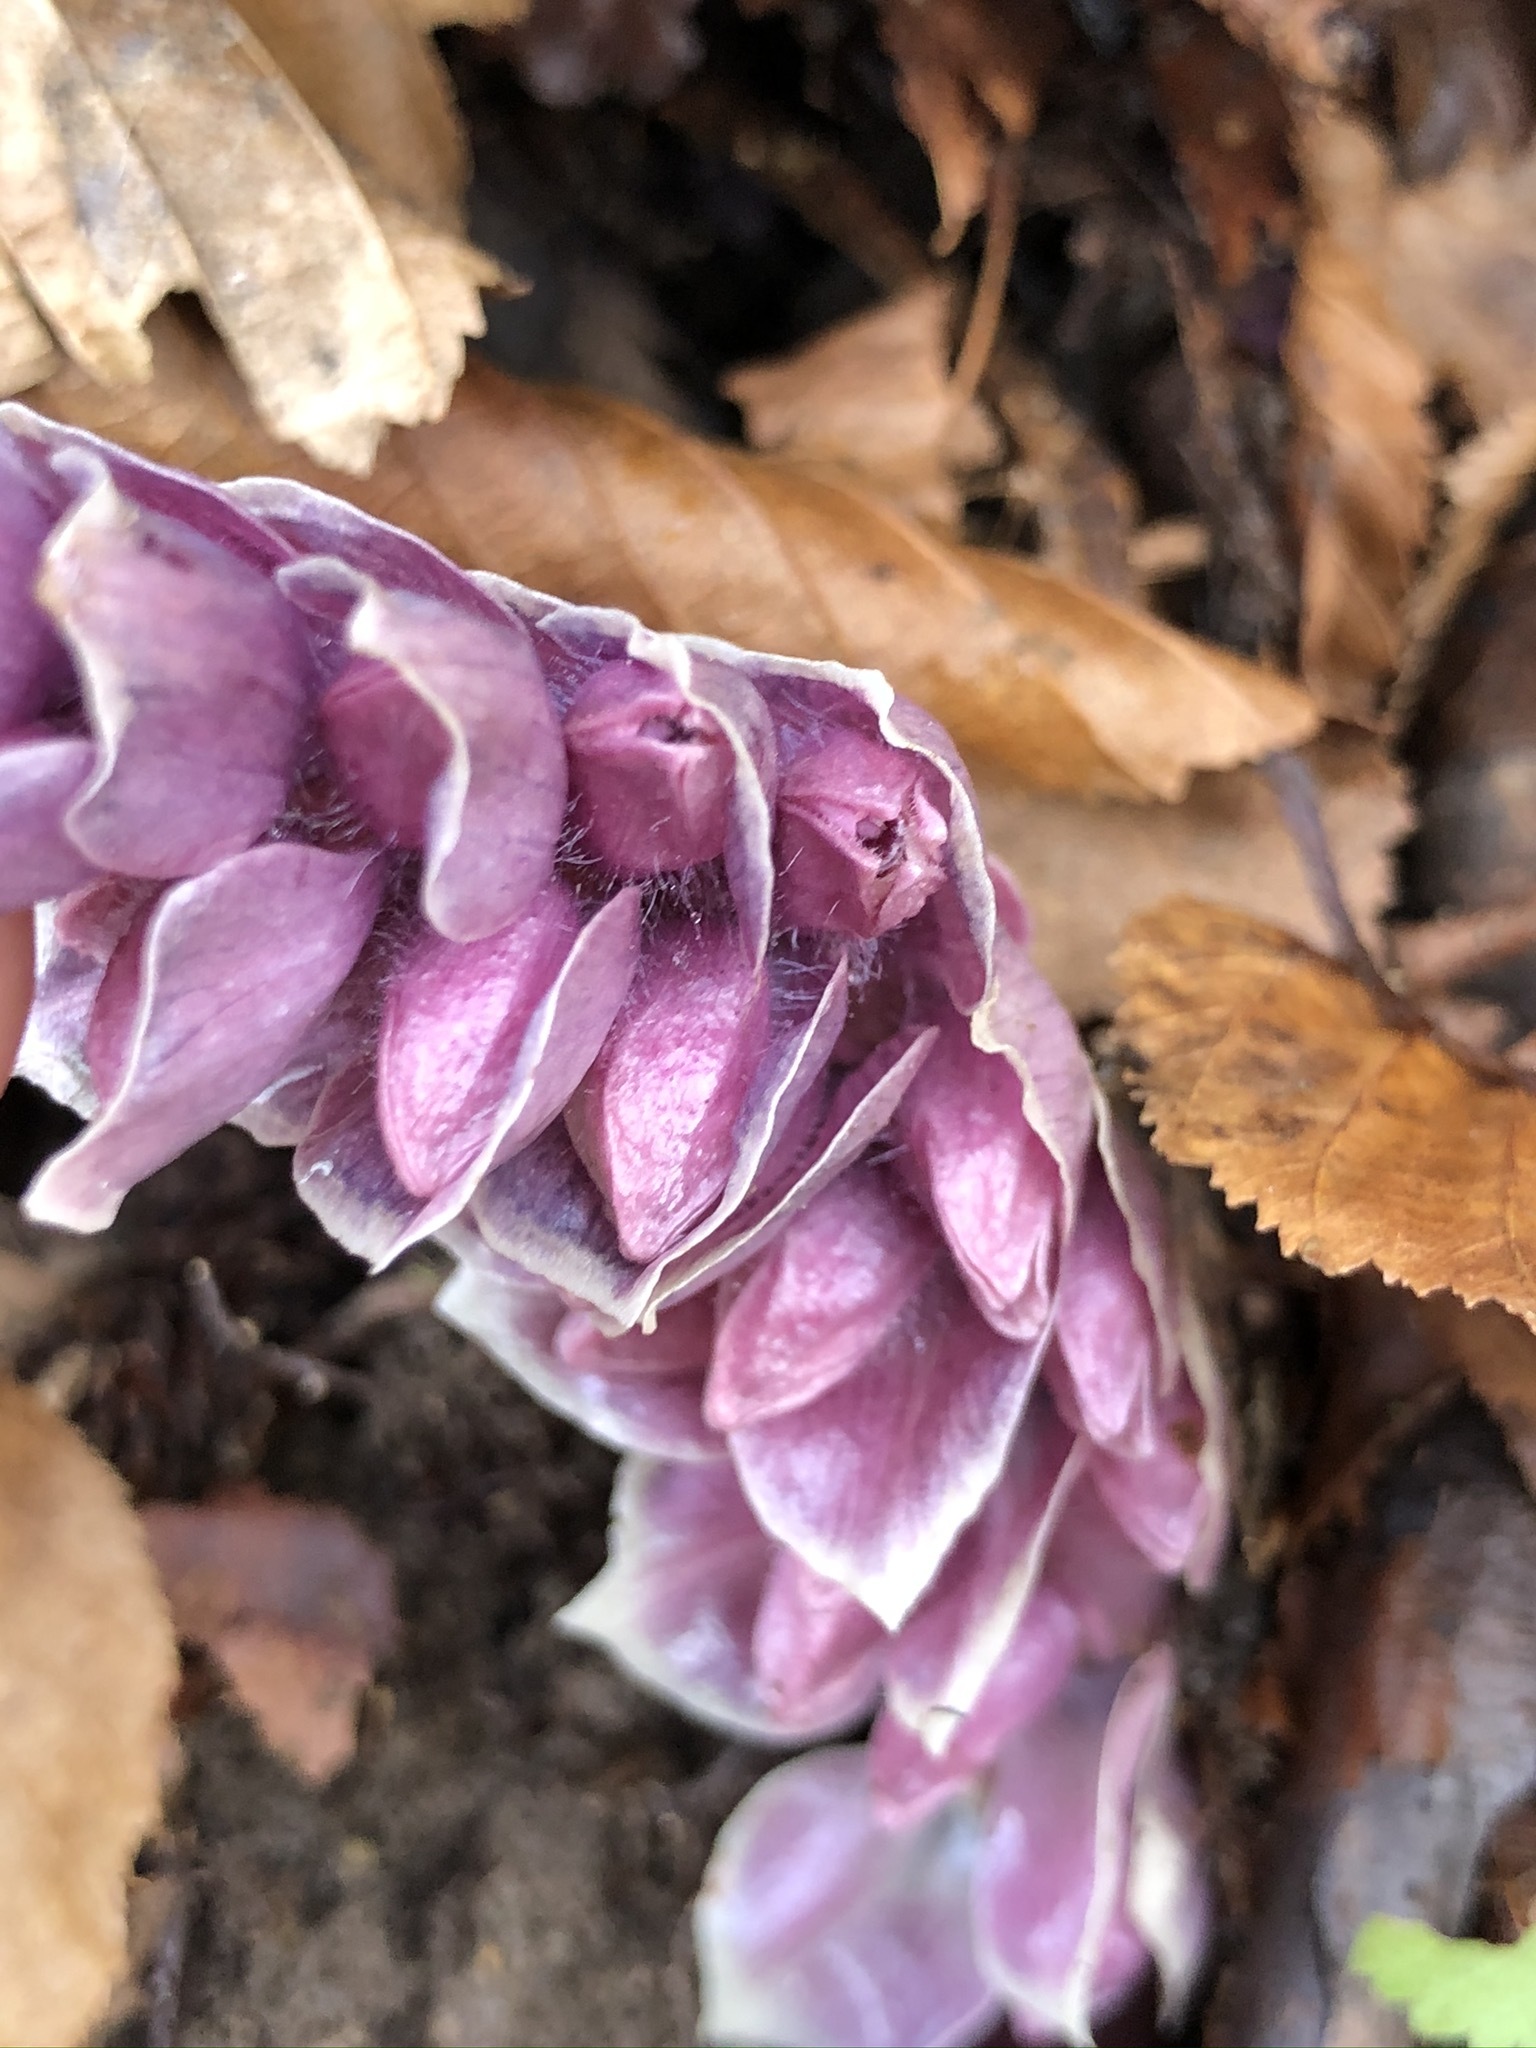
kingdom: Plantae
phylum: Tracheophyta
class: Magnoliopsida
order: Lamiales
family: Orobanchaceae
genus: Lathraea
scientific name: Lathraea squamaria
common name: Toothwort
